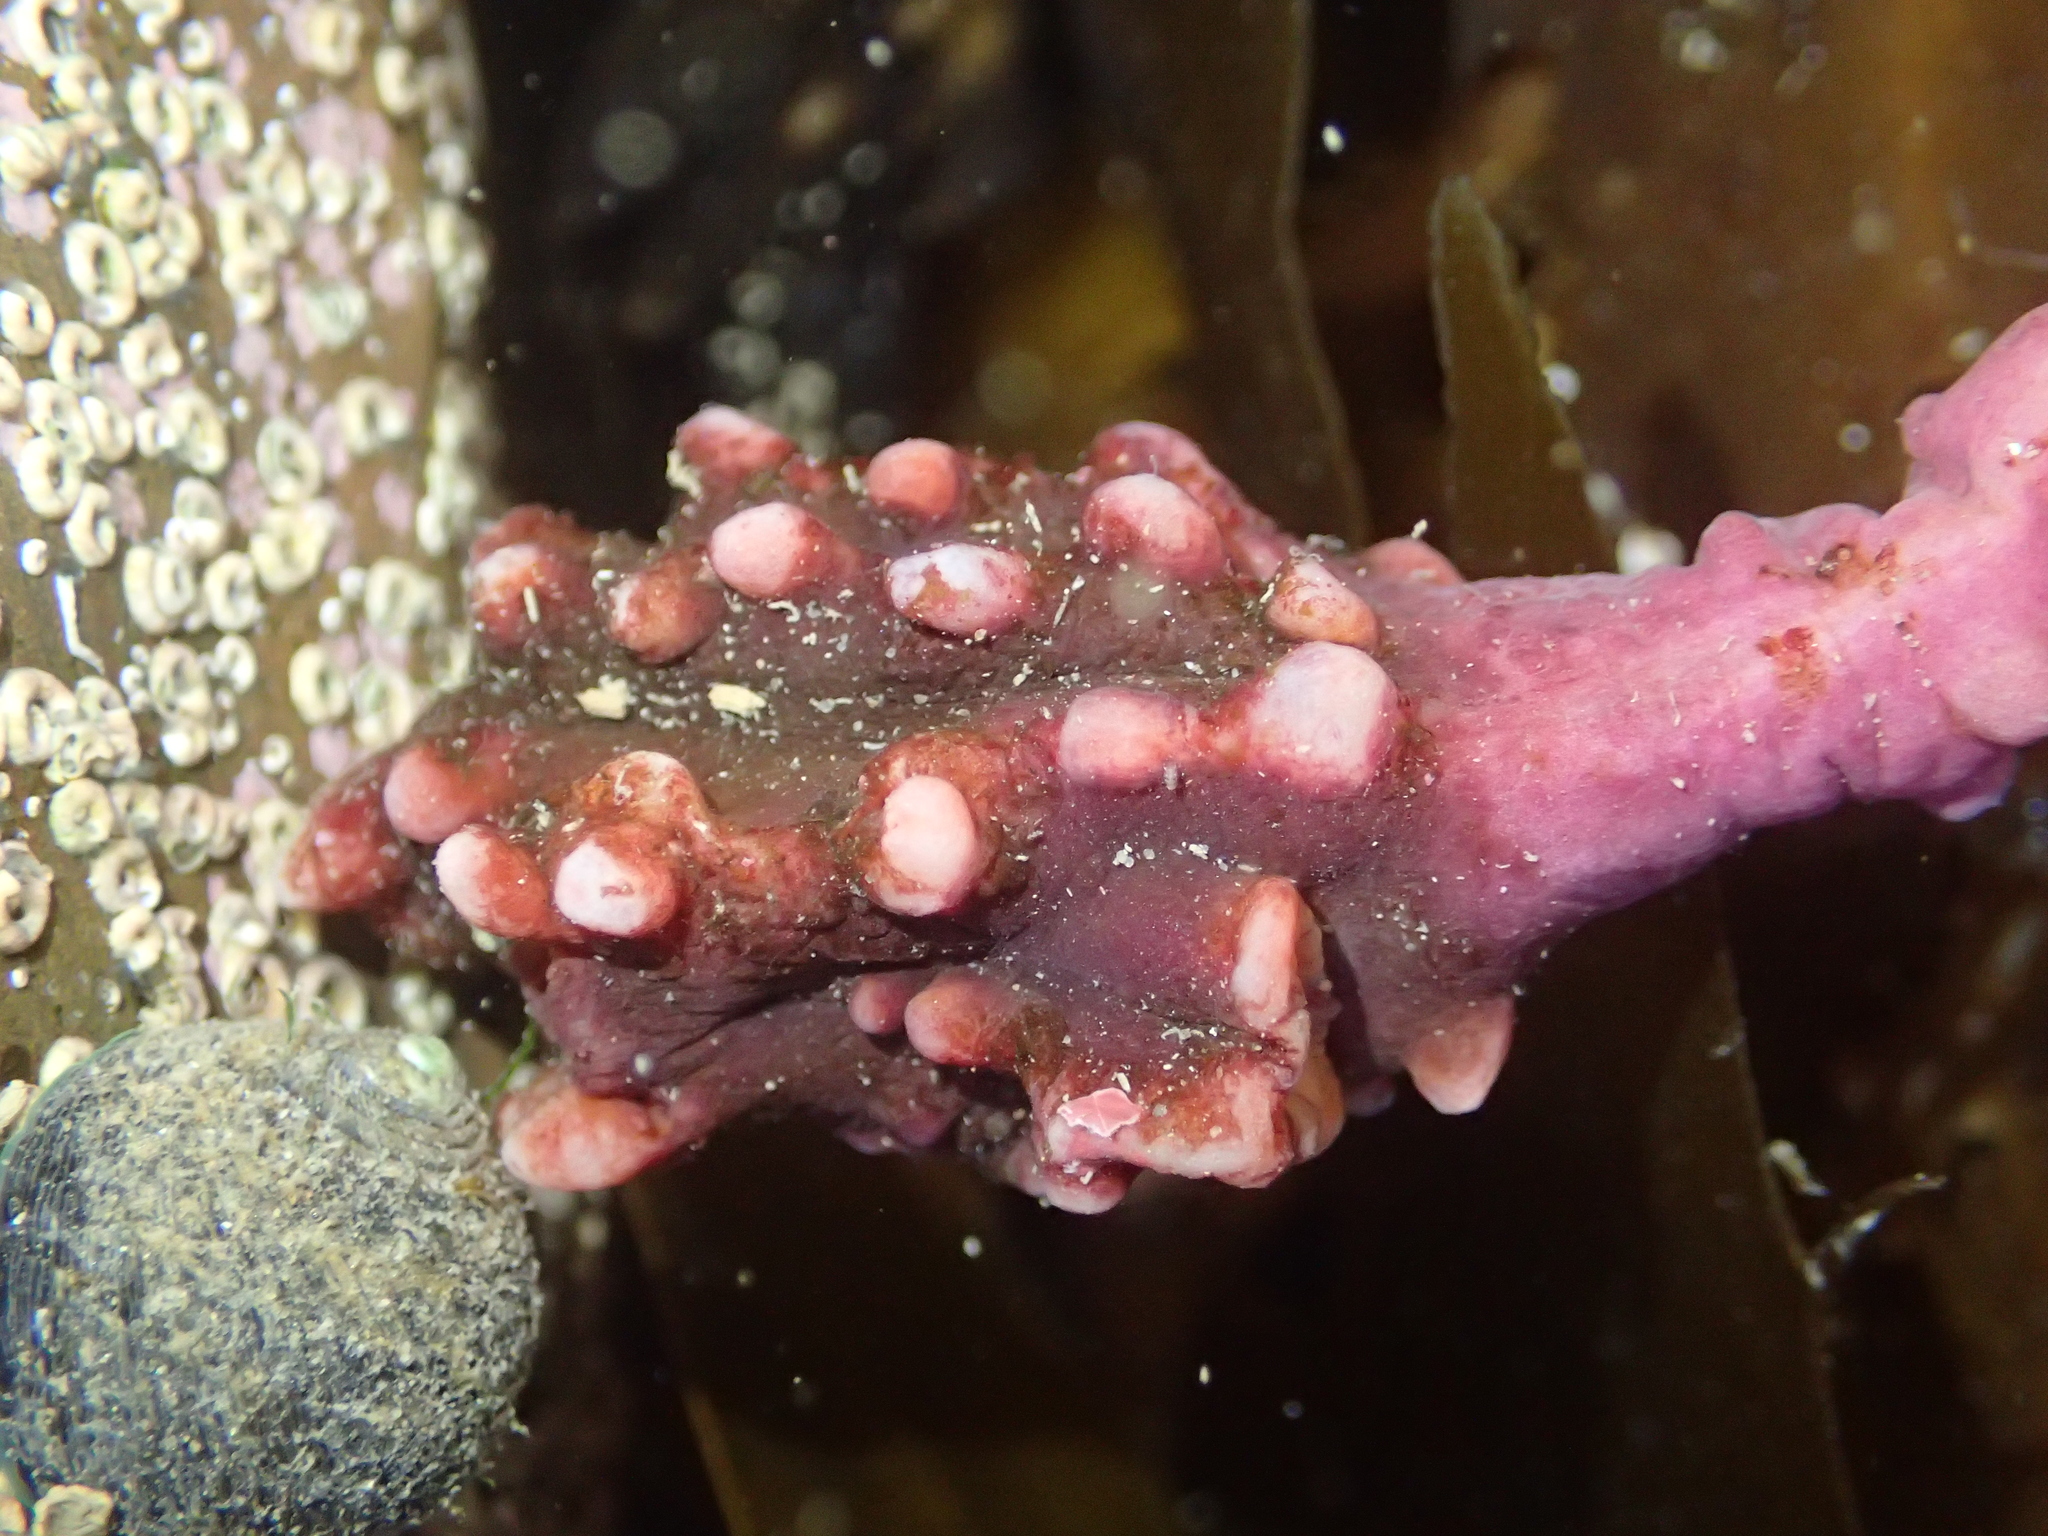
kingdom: Animalia
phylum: Chordata
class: Ascidiacea
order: Stolidobranchia
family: Pyuridae
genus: Pyura
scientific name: Pyura pachydermatina
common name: Sea tulip
